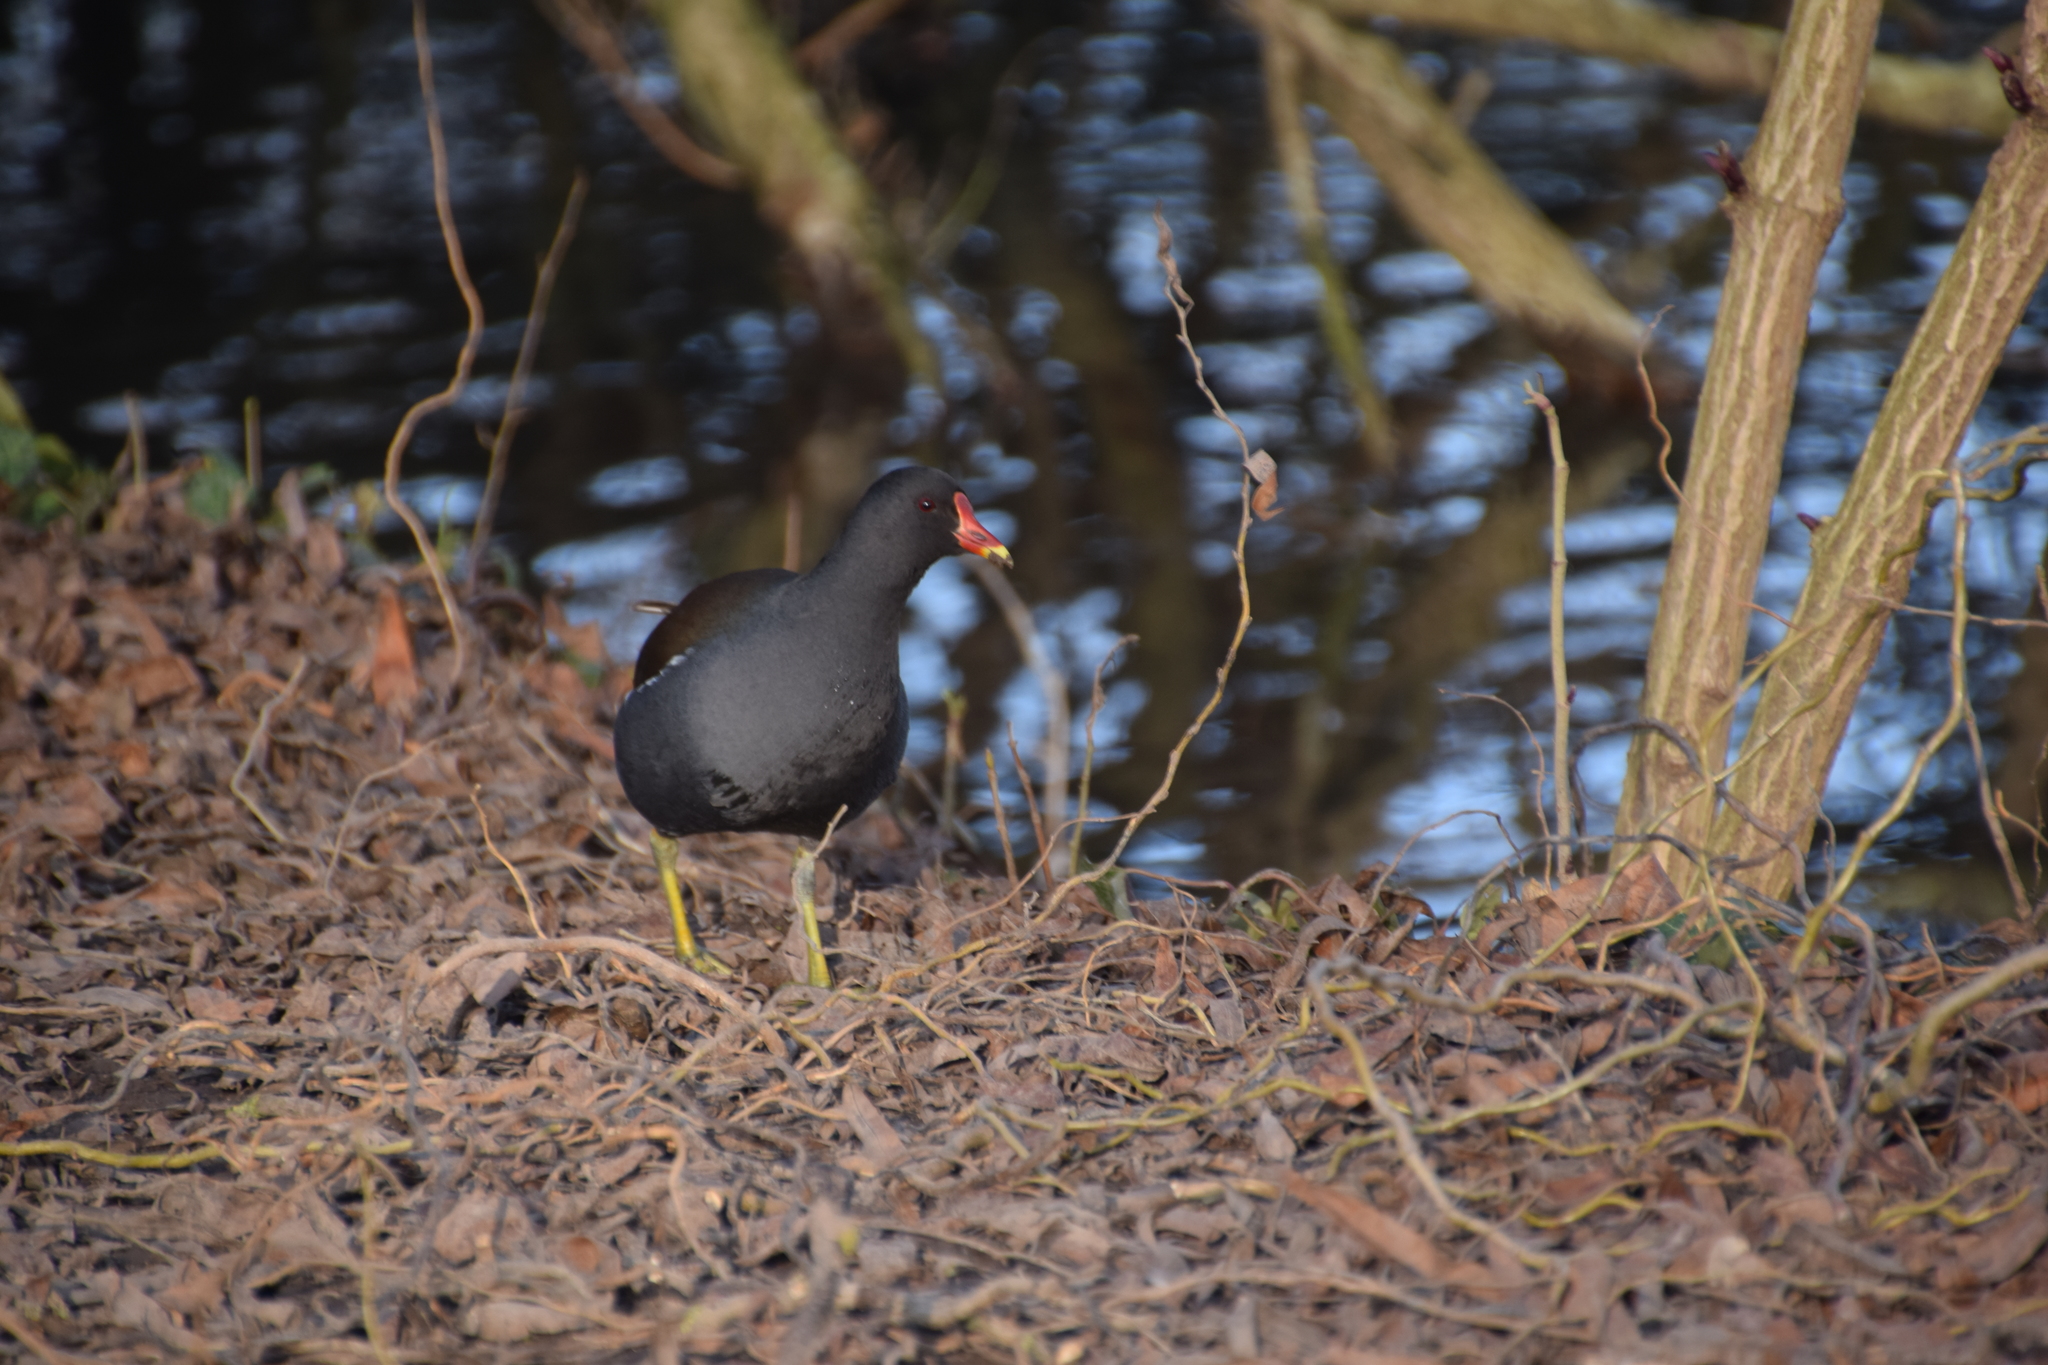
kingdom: Animalia
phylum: Chordata
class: Aves
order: Gruiformes
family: Rallidae
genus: Gallinula
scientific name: Gallinula chloropus
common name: Common moorhen
